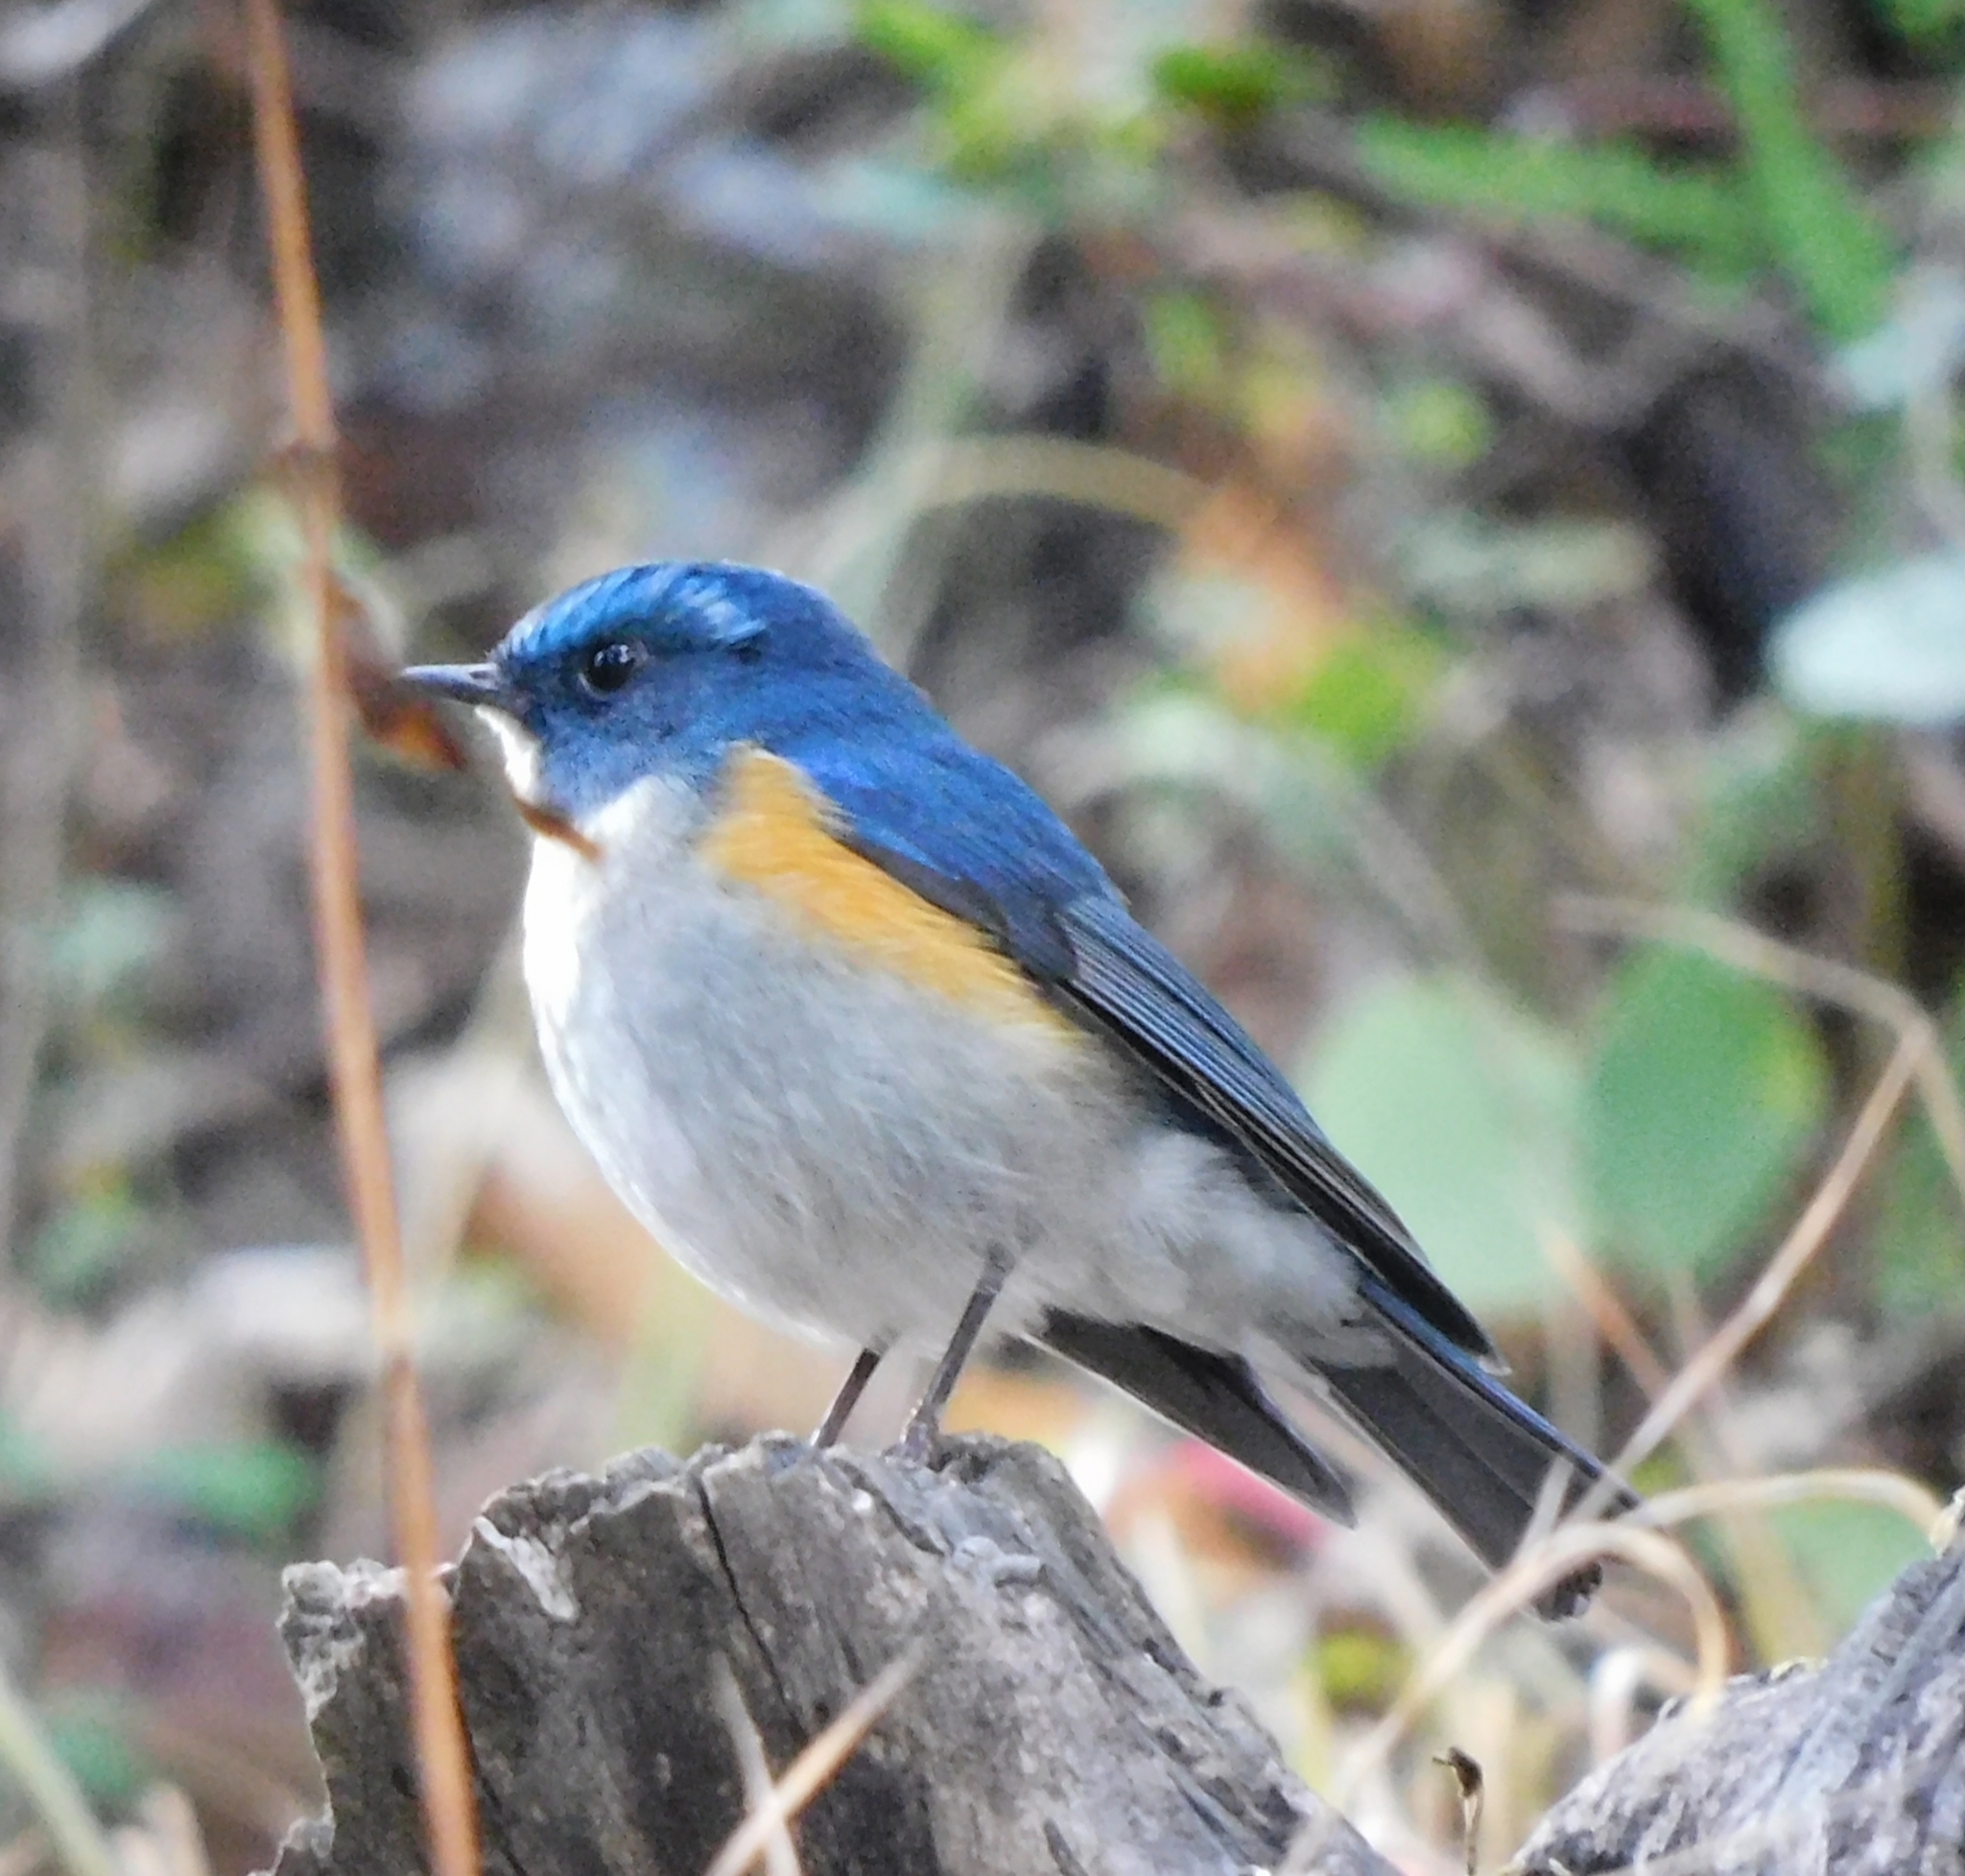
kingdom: Animalia
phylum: Chordata
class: Aves
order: Passeriformes
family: Muscicapidae
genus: Tarsiger
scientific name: Tarsiger rufilatus
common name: Himalayan bluetail
